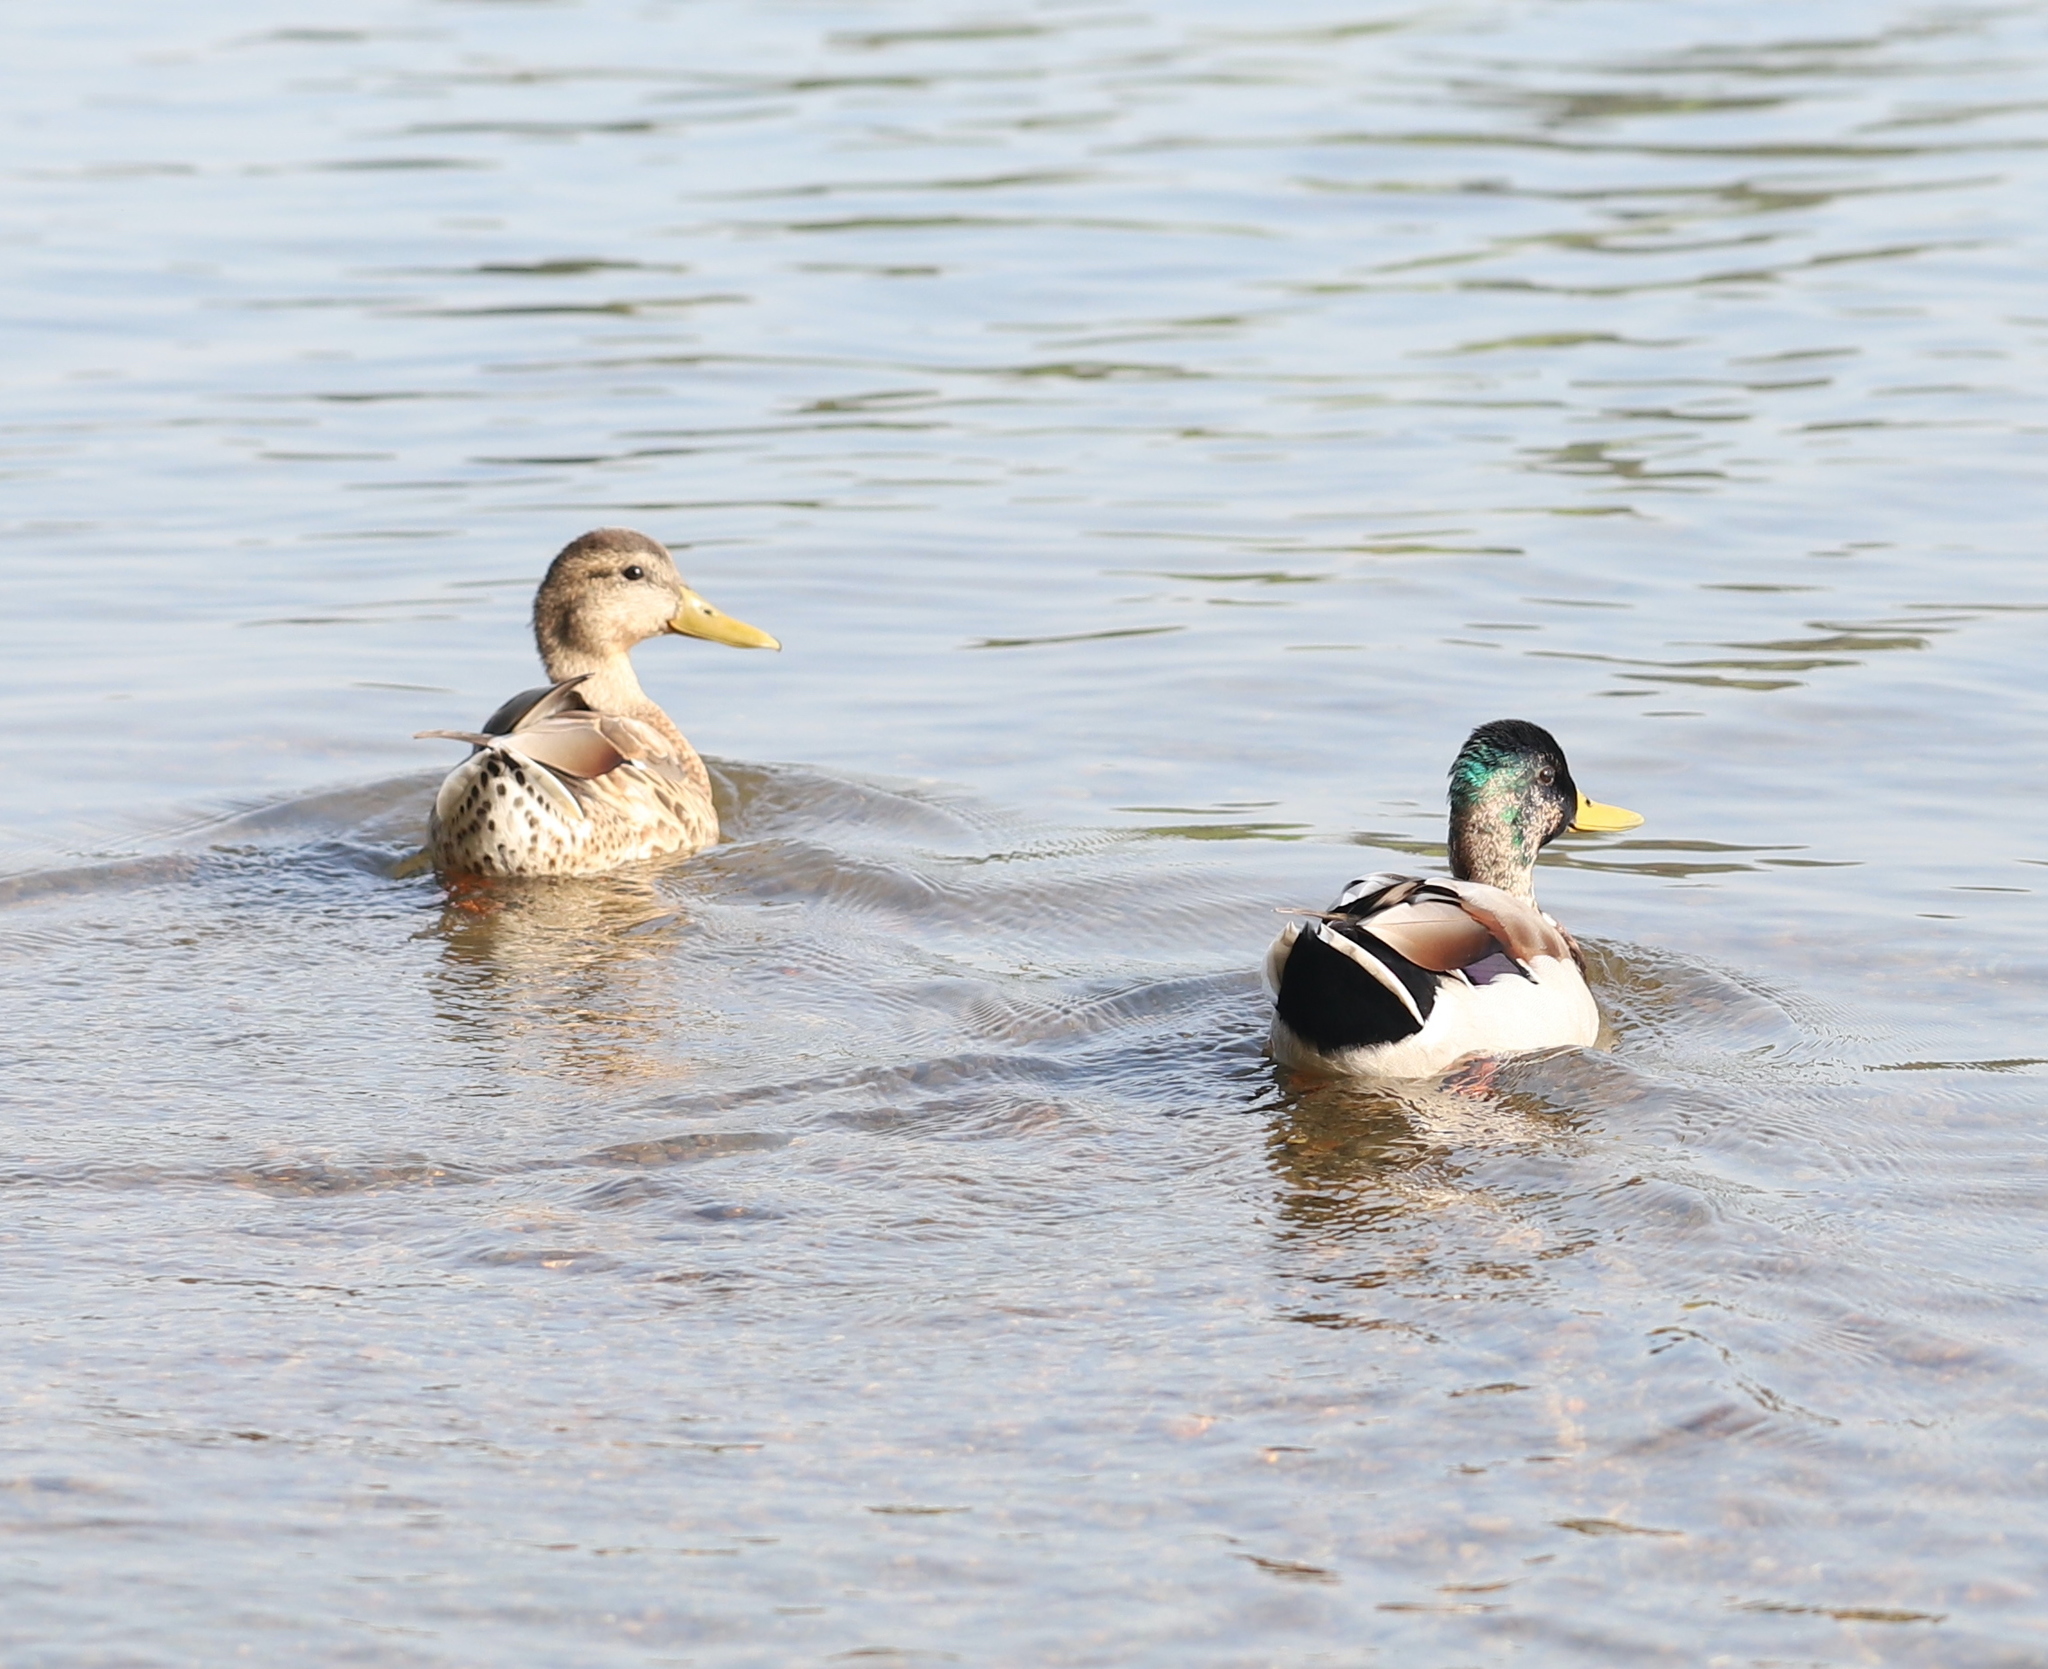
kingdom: Animalia
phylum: Chordata
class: Aves
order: Anseriformes
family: Anatidae
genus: Anas
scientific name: Anas platyrhynchos
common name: Mallard
